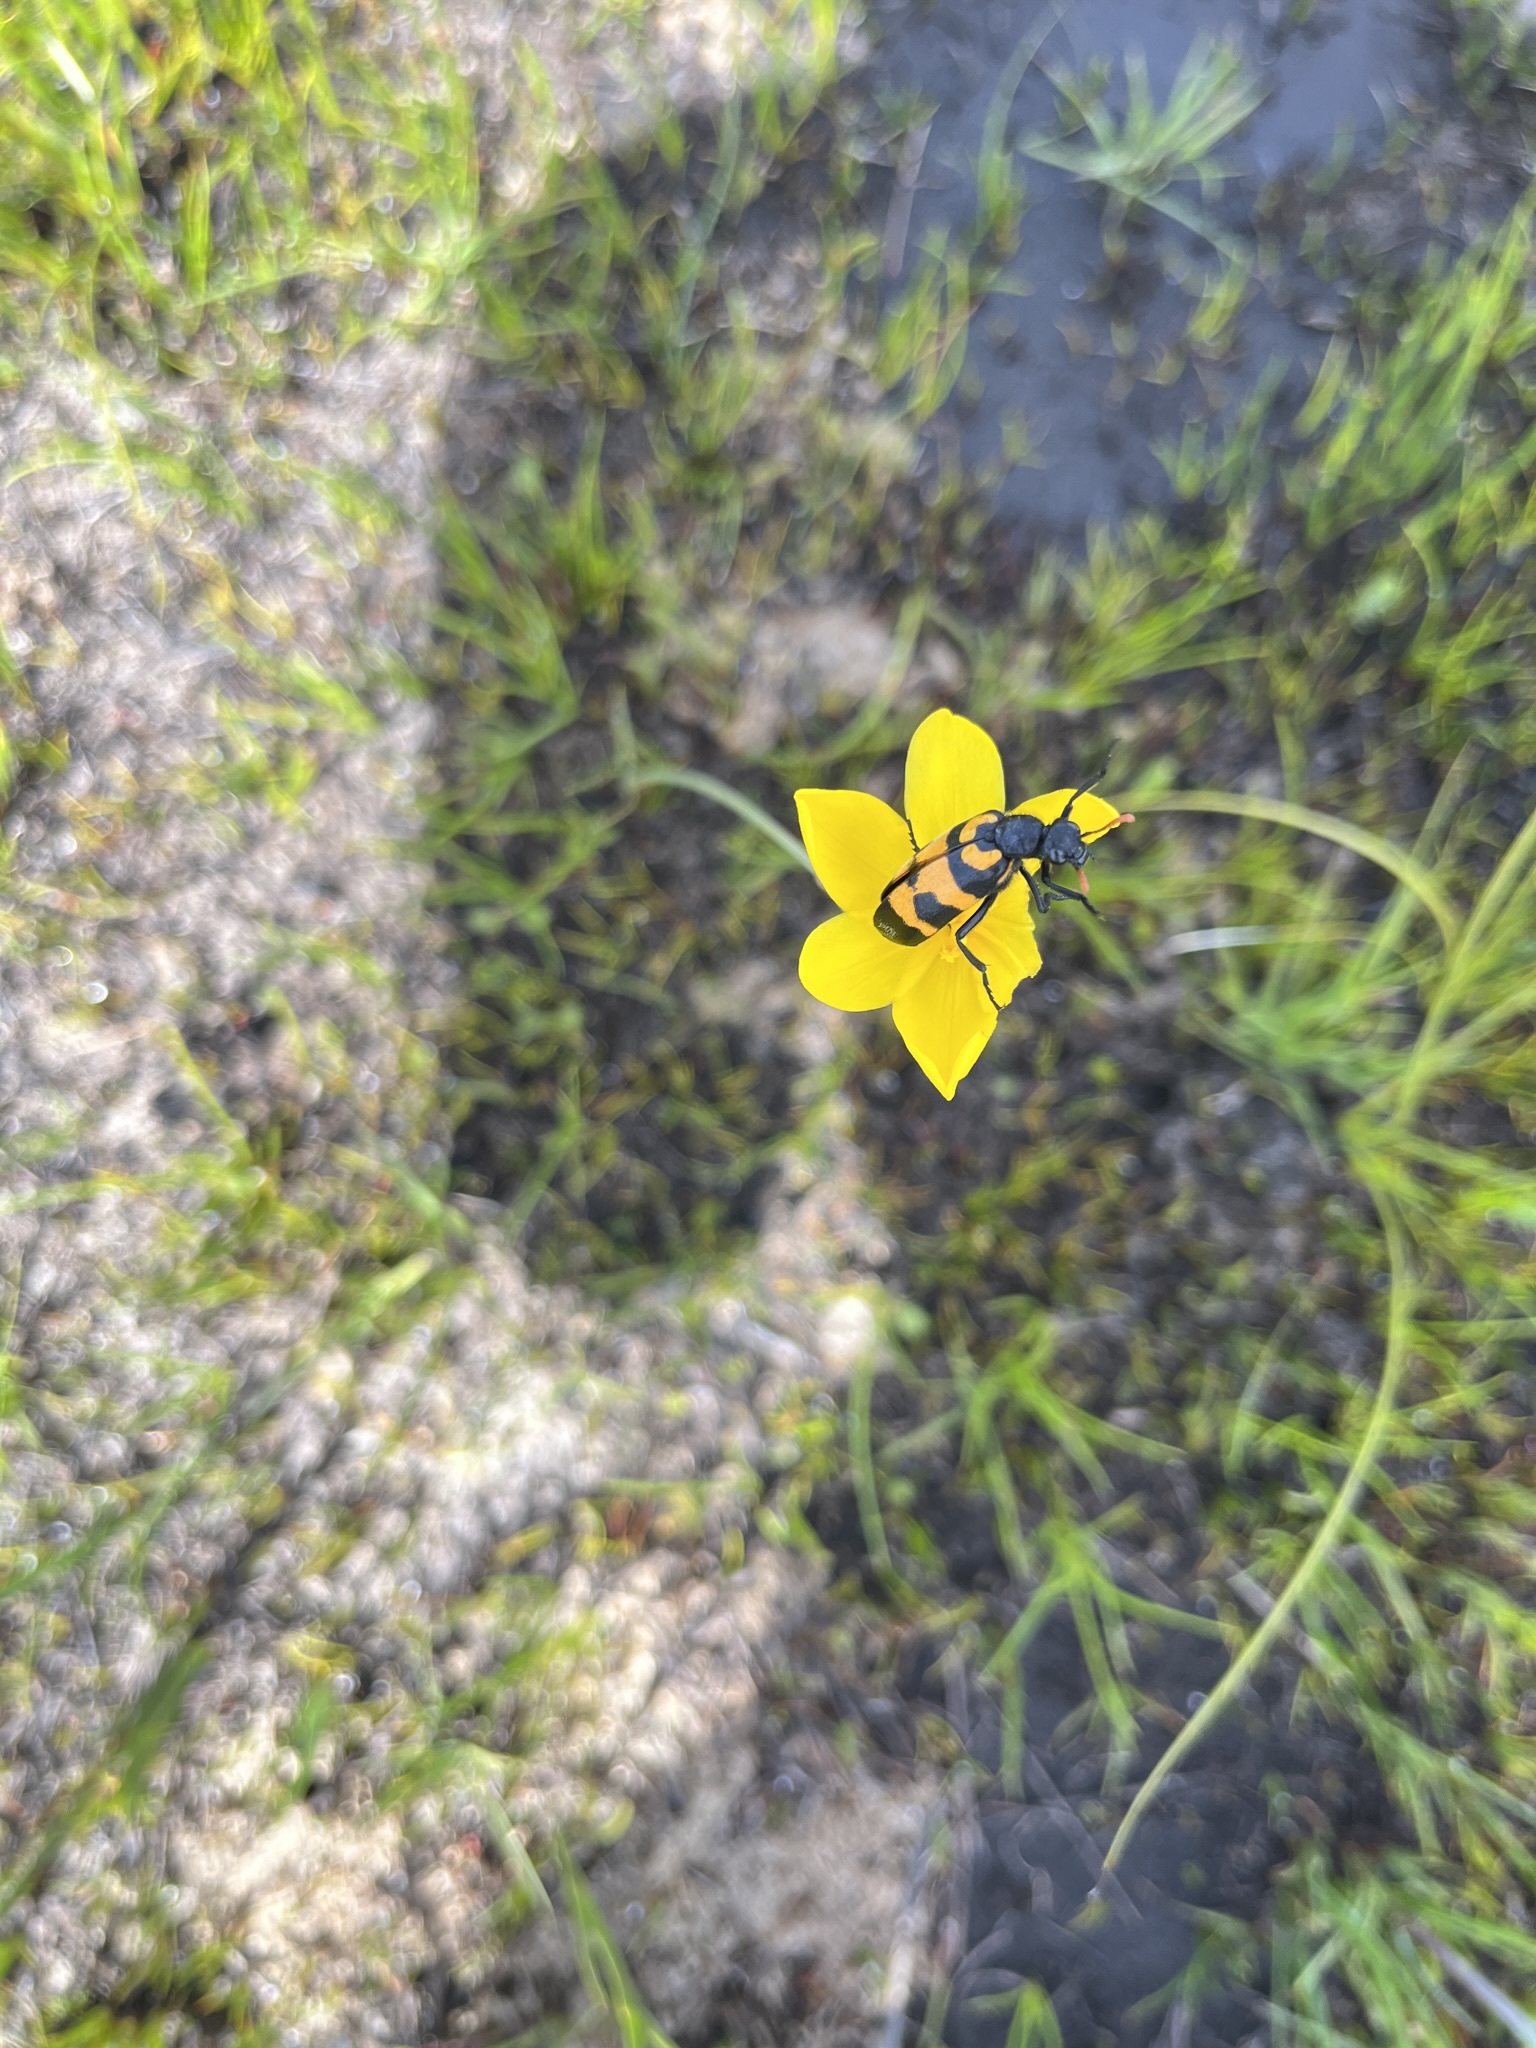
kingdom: Animalia
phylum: Arthropoda
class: Insecta
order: Coleoptera
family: Meloidae
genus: Meloe
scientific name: Meloe lunata
